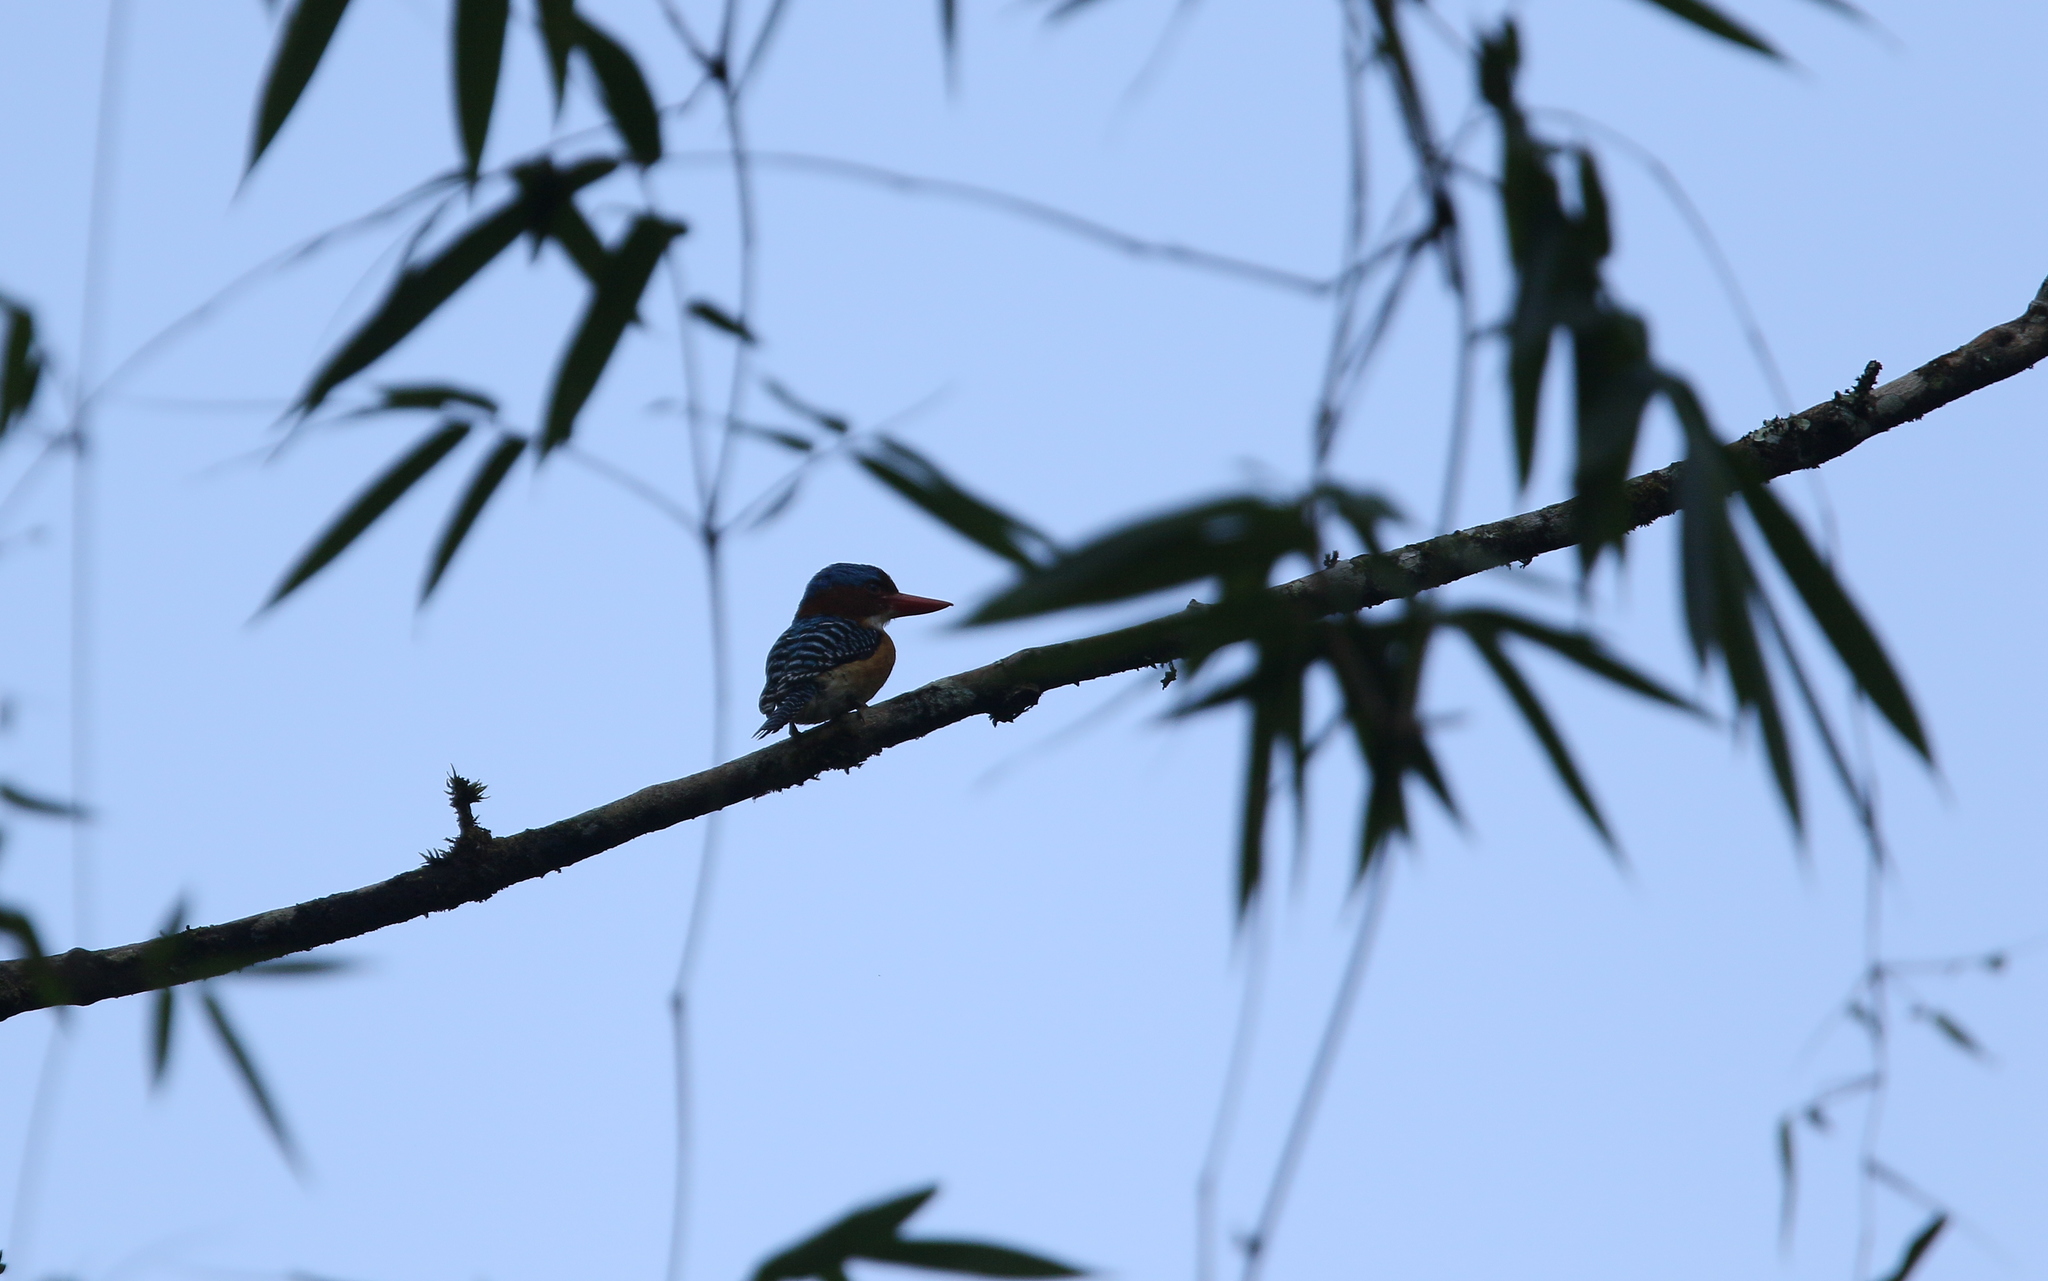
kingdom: Animalia
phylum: Chordata
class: Aves
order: Coraciiformes
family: Alcedinidae
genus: Lacedo
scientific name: Lacedo pulchella
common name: Banded kingfisher
